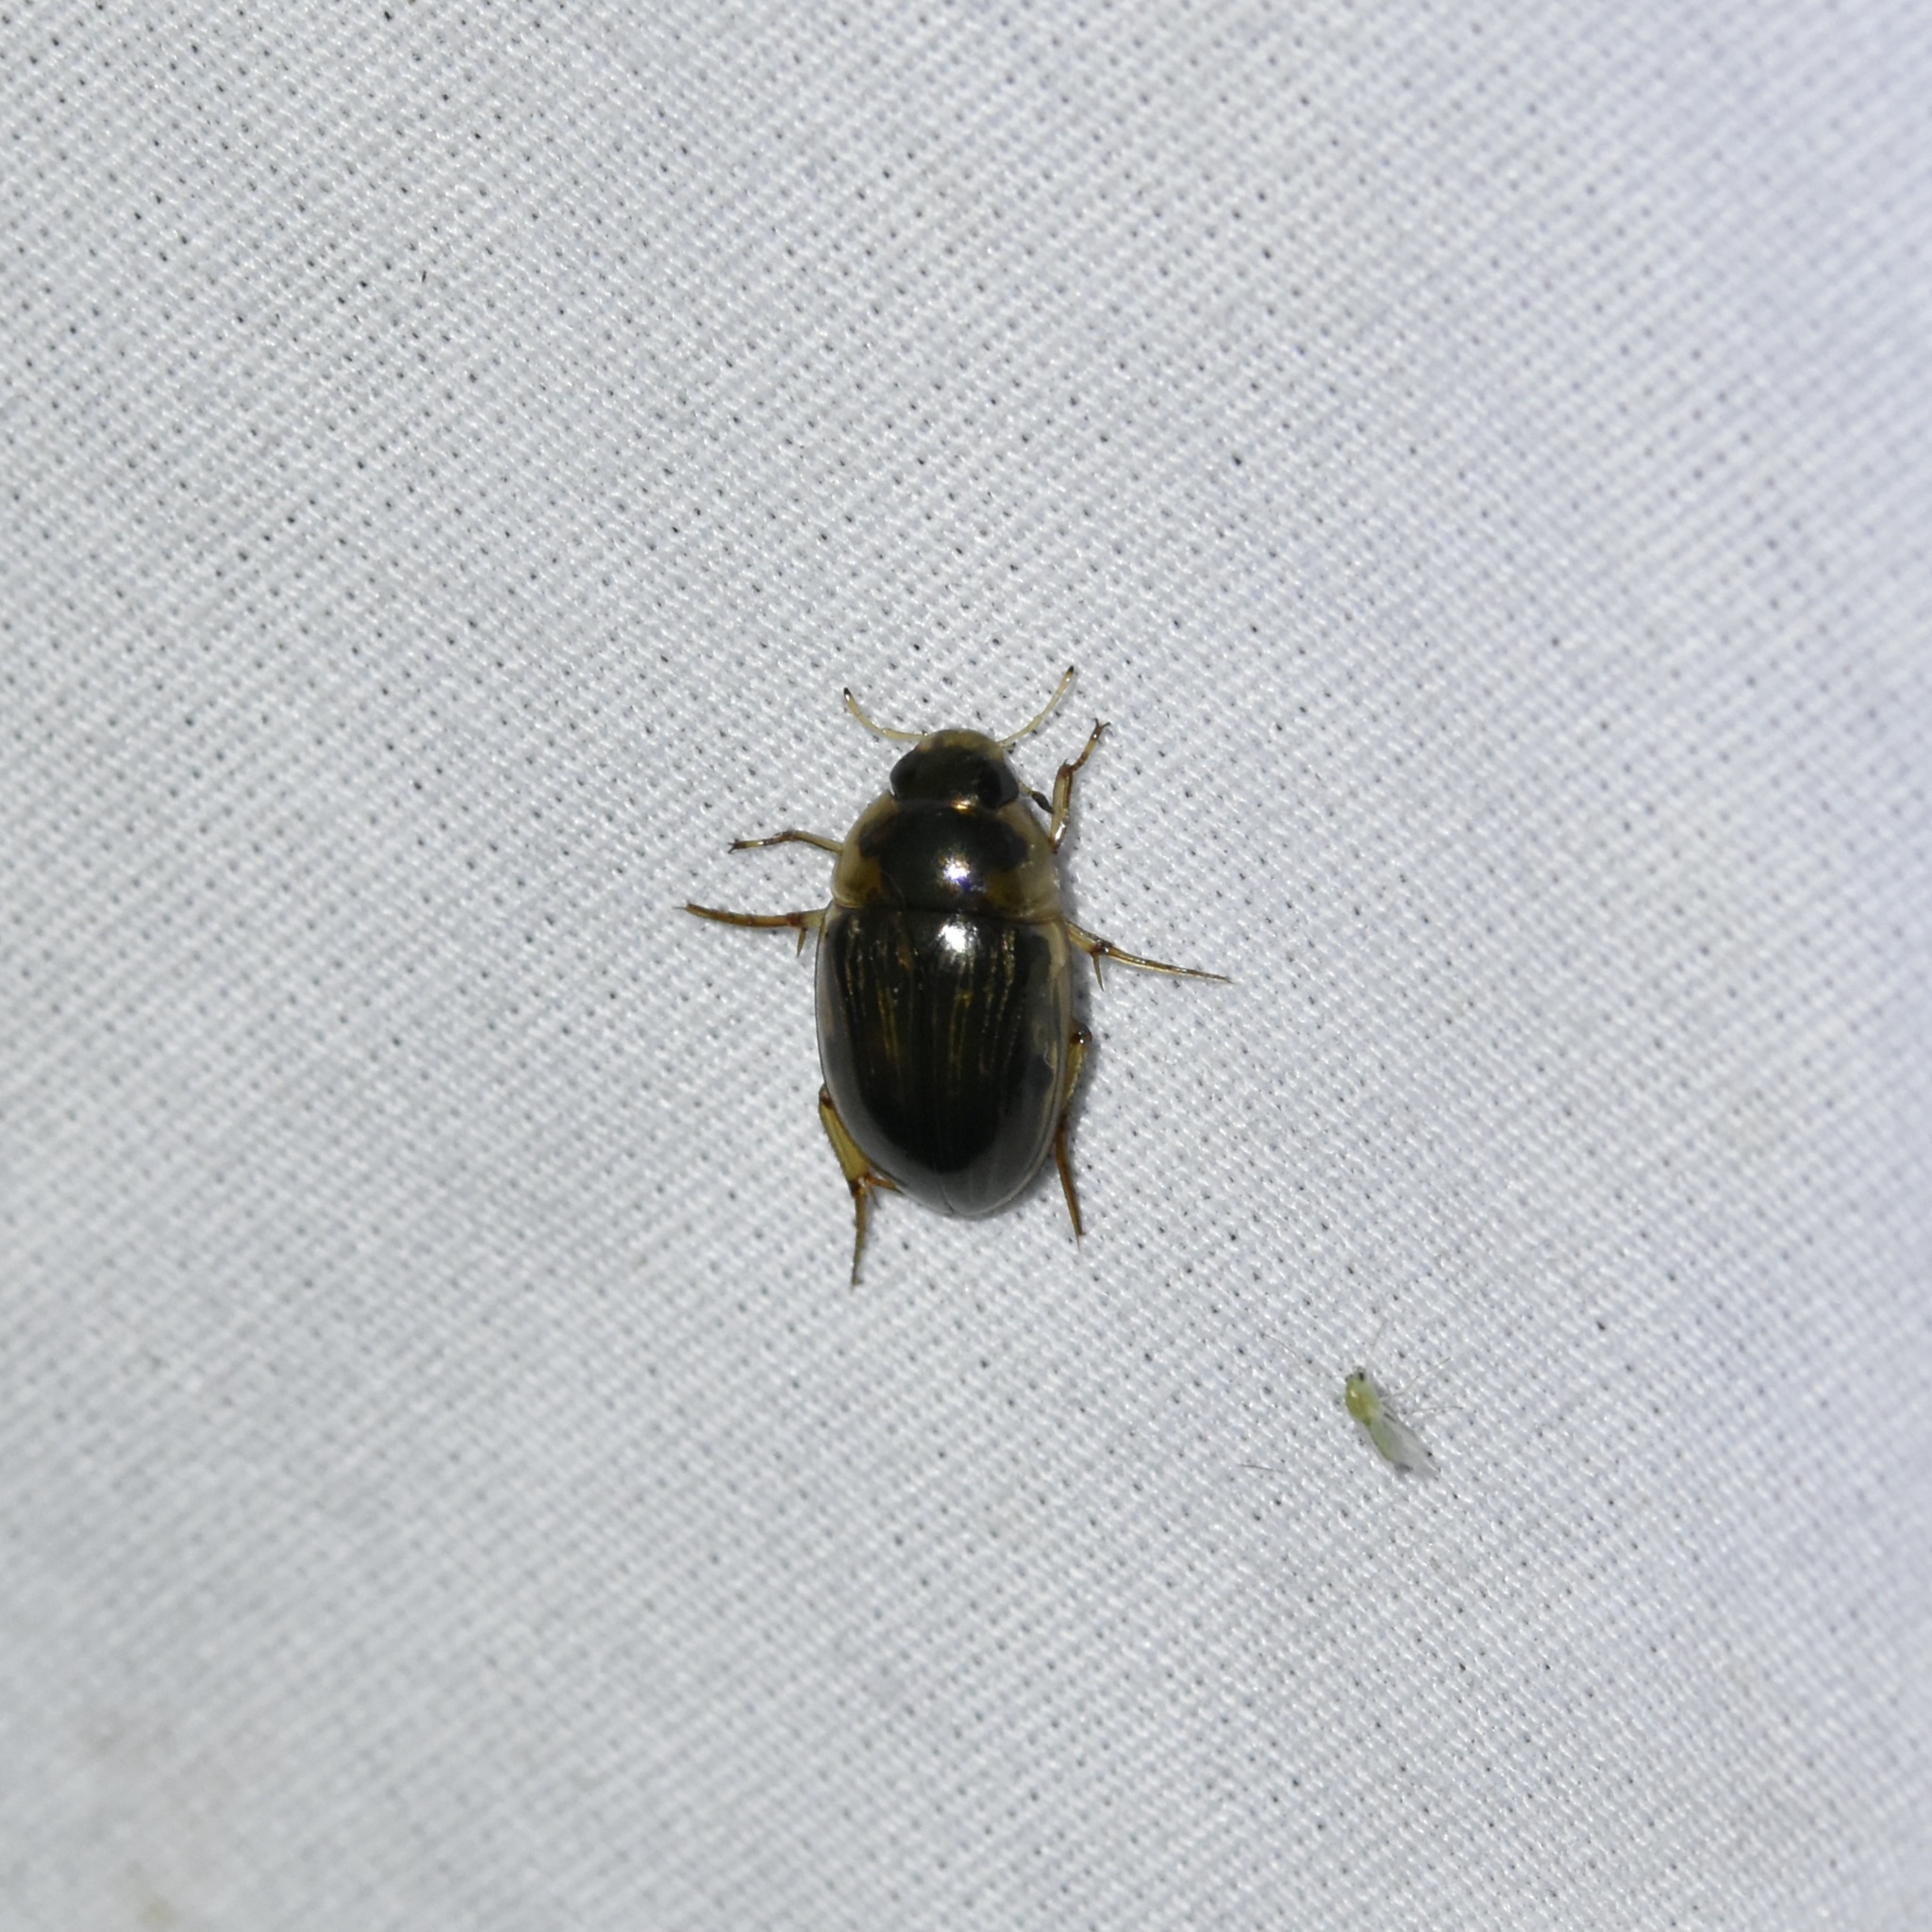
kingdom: Animalia
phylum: Arthropoda
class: Insecta
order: Coleoptera
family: Hydrophilidae
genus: Tropisternus
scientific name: Tropisternus collaris
